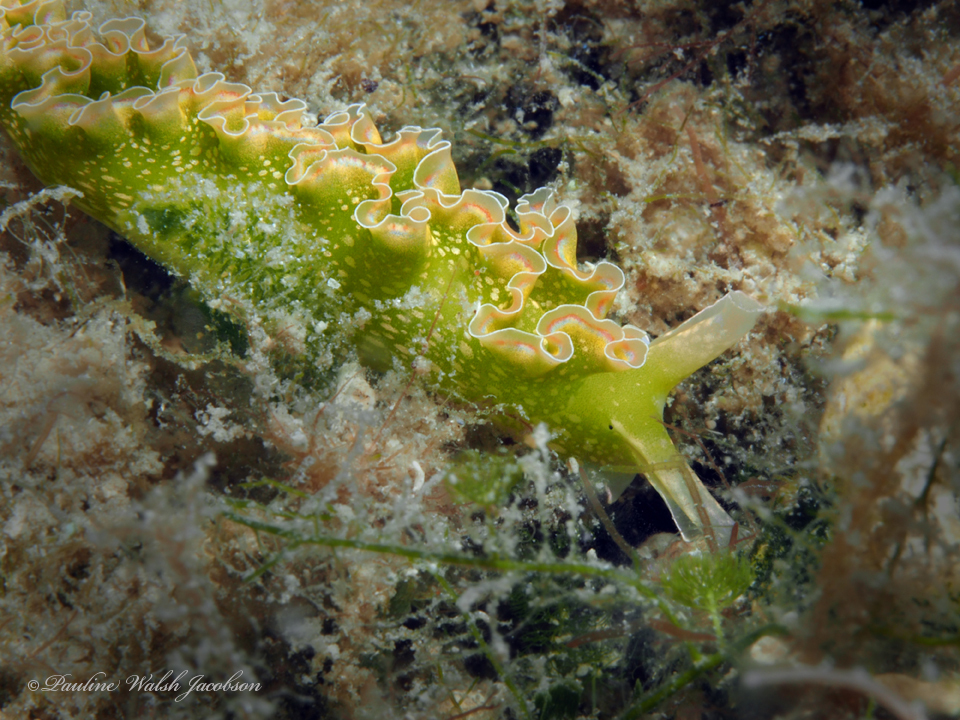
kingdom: Animalia
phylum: Mollusca
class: Gastropoda
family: Plakobranchidae
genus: Elysia
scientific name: Elysia crispata
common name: Lettuce slug
